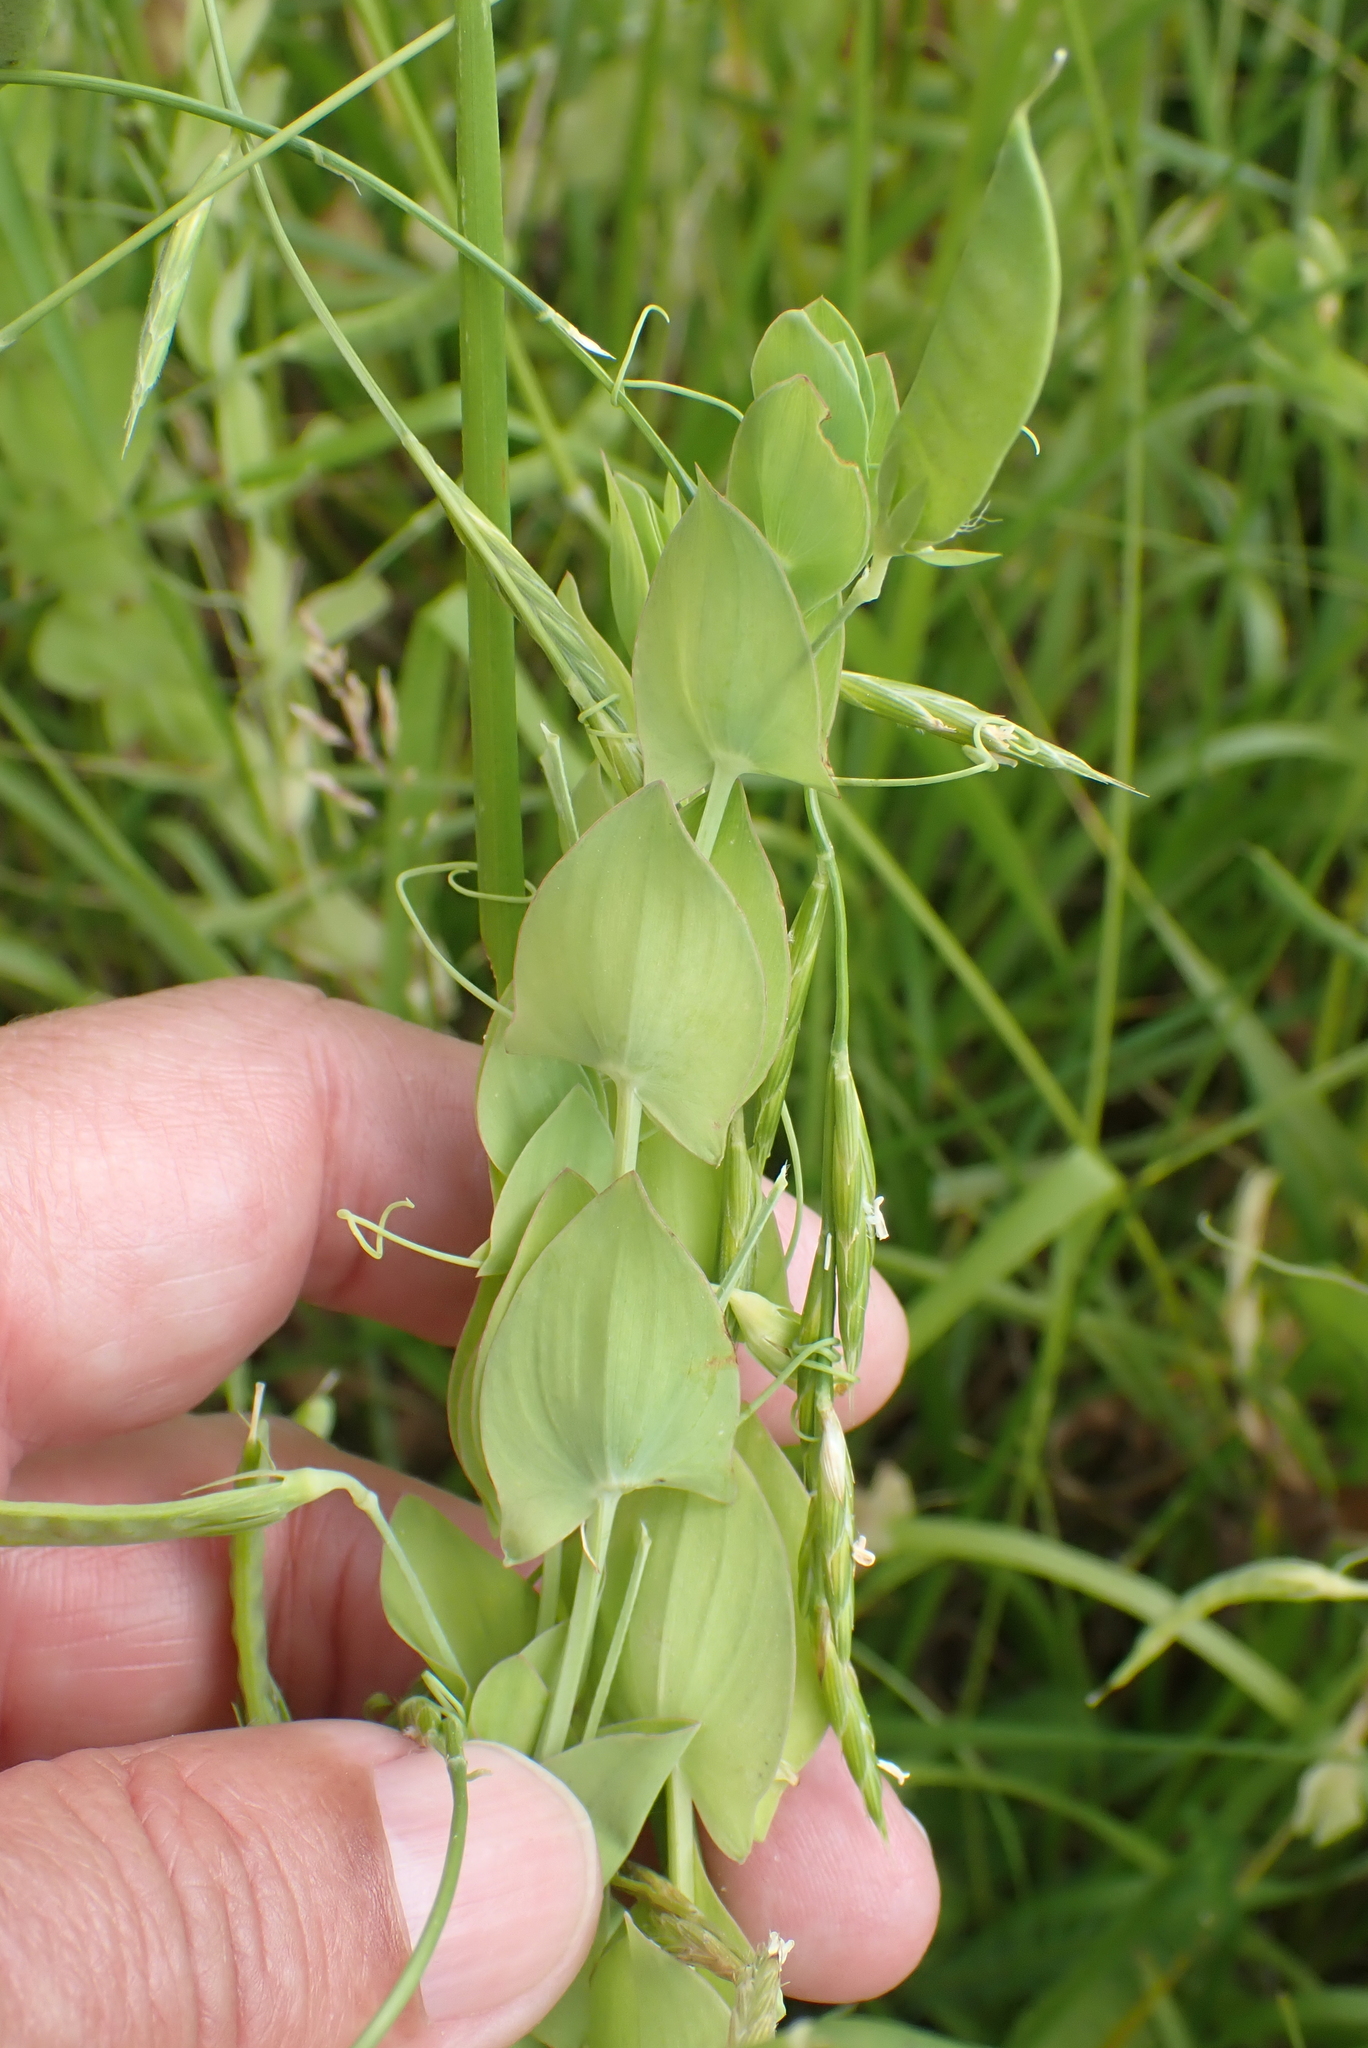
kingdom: Plantae
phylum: Tracheophyta
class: Magnoliopsida
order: Fabales
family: Fabaceae
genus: Lathyrus
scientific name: Lathyrus aphaca
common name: Yellow vetchling
